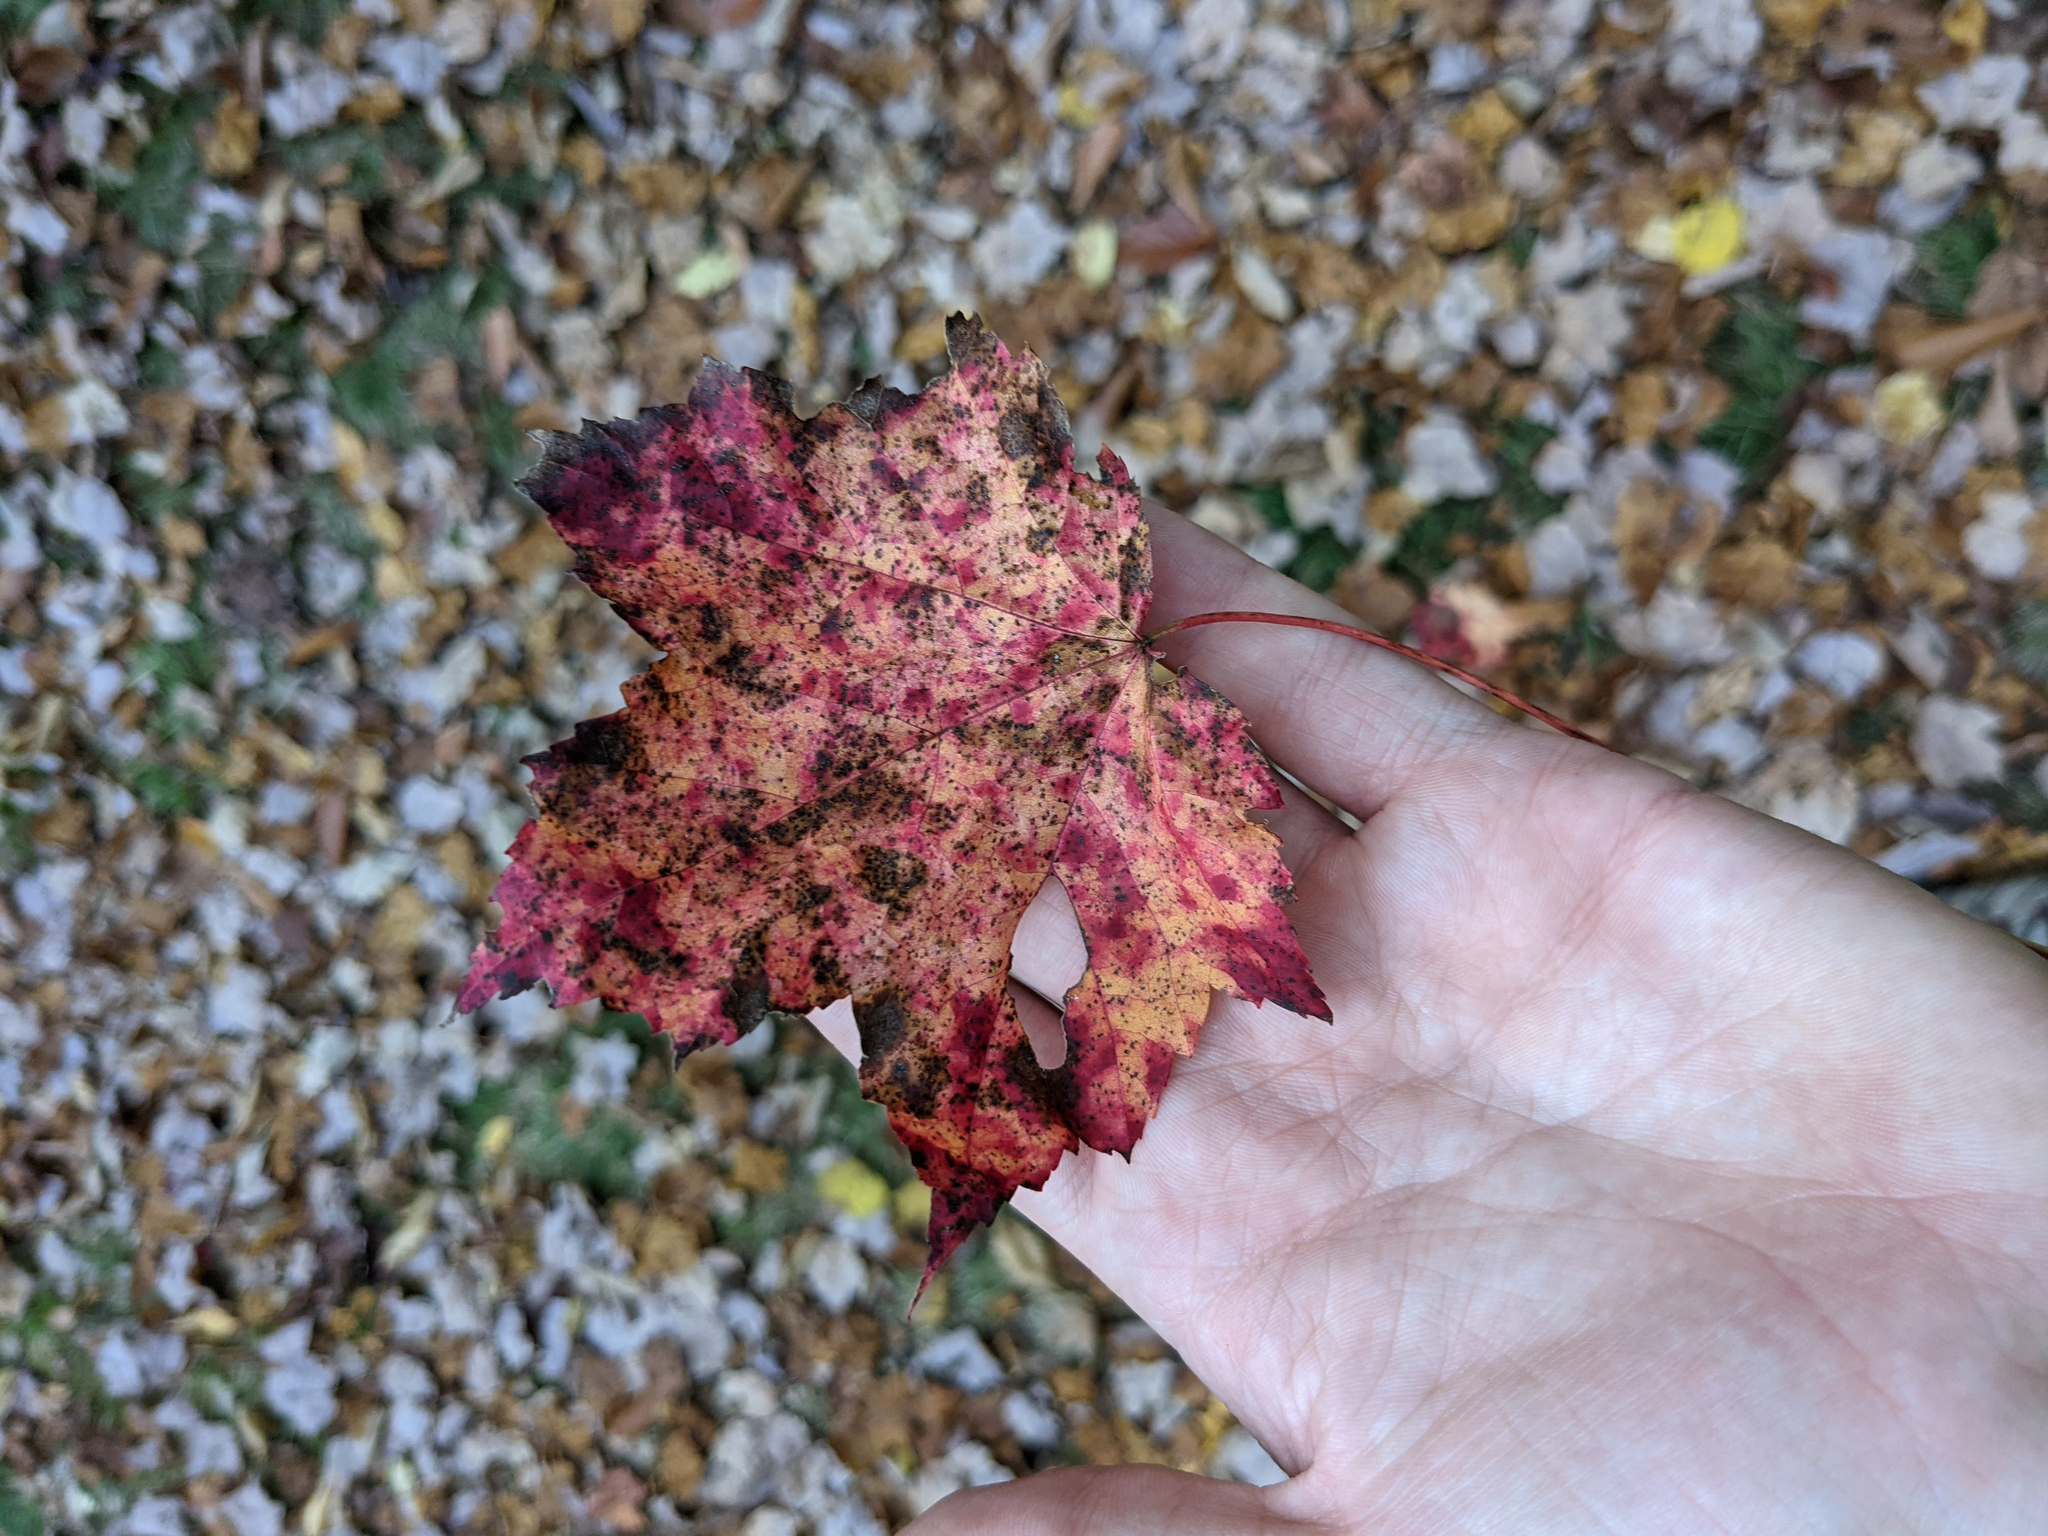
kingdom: Plantae
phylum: Tracheophyta
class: Magnoliopsida
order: Sapindales
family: Sapindaceae
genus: Acer
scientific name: Acer rubrum
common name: Red maple
